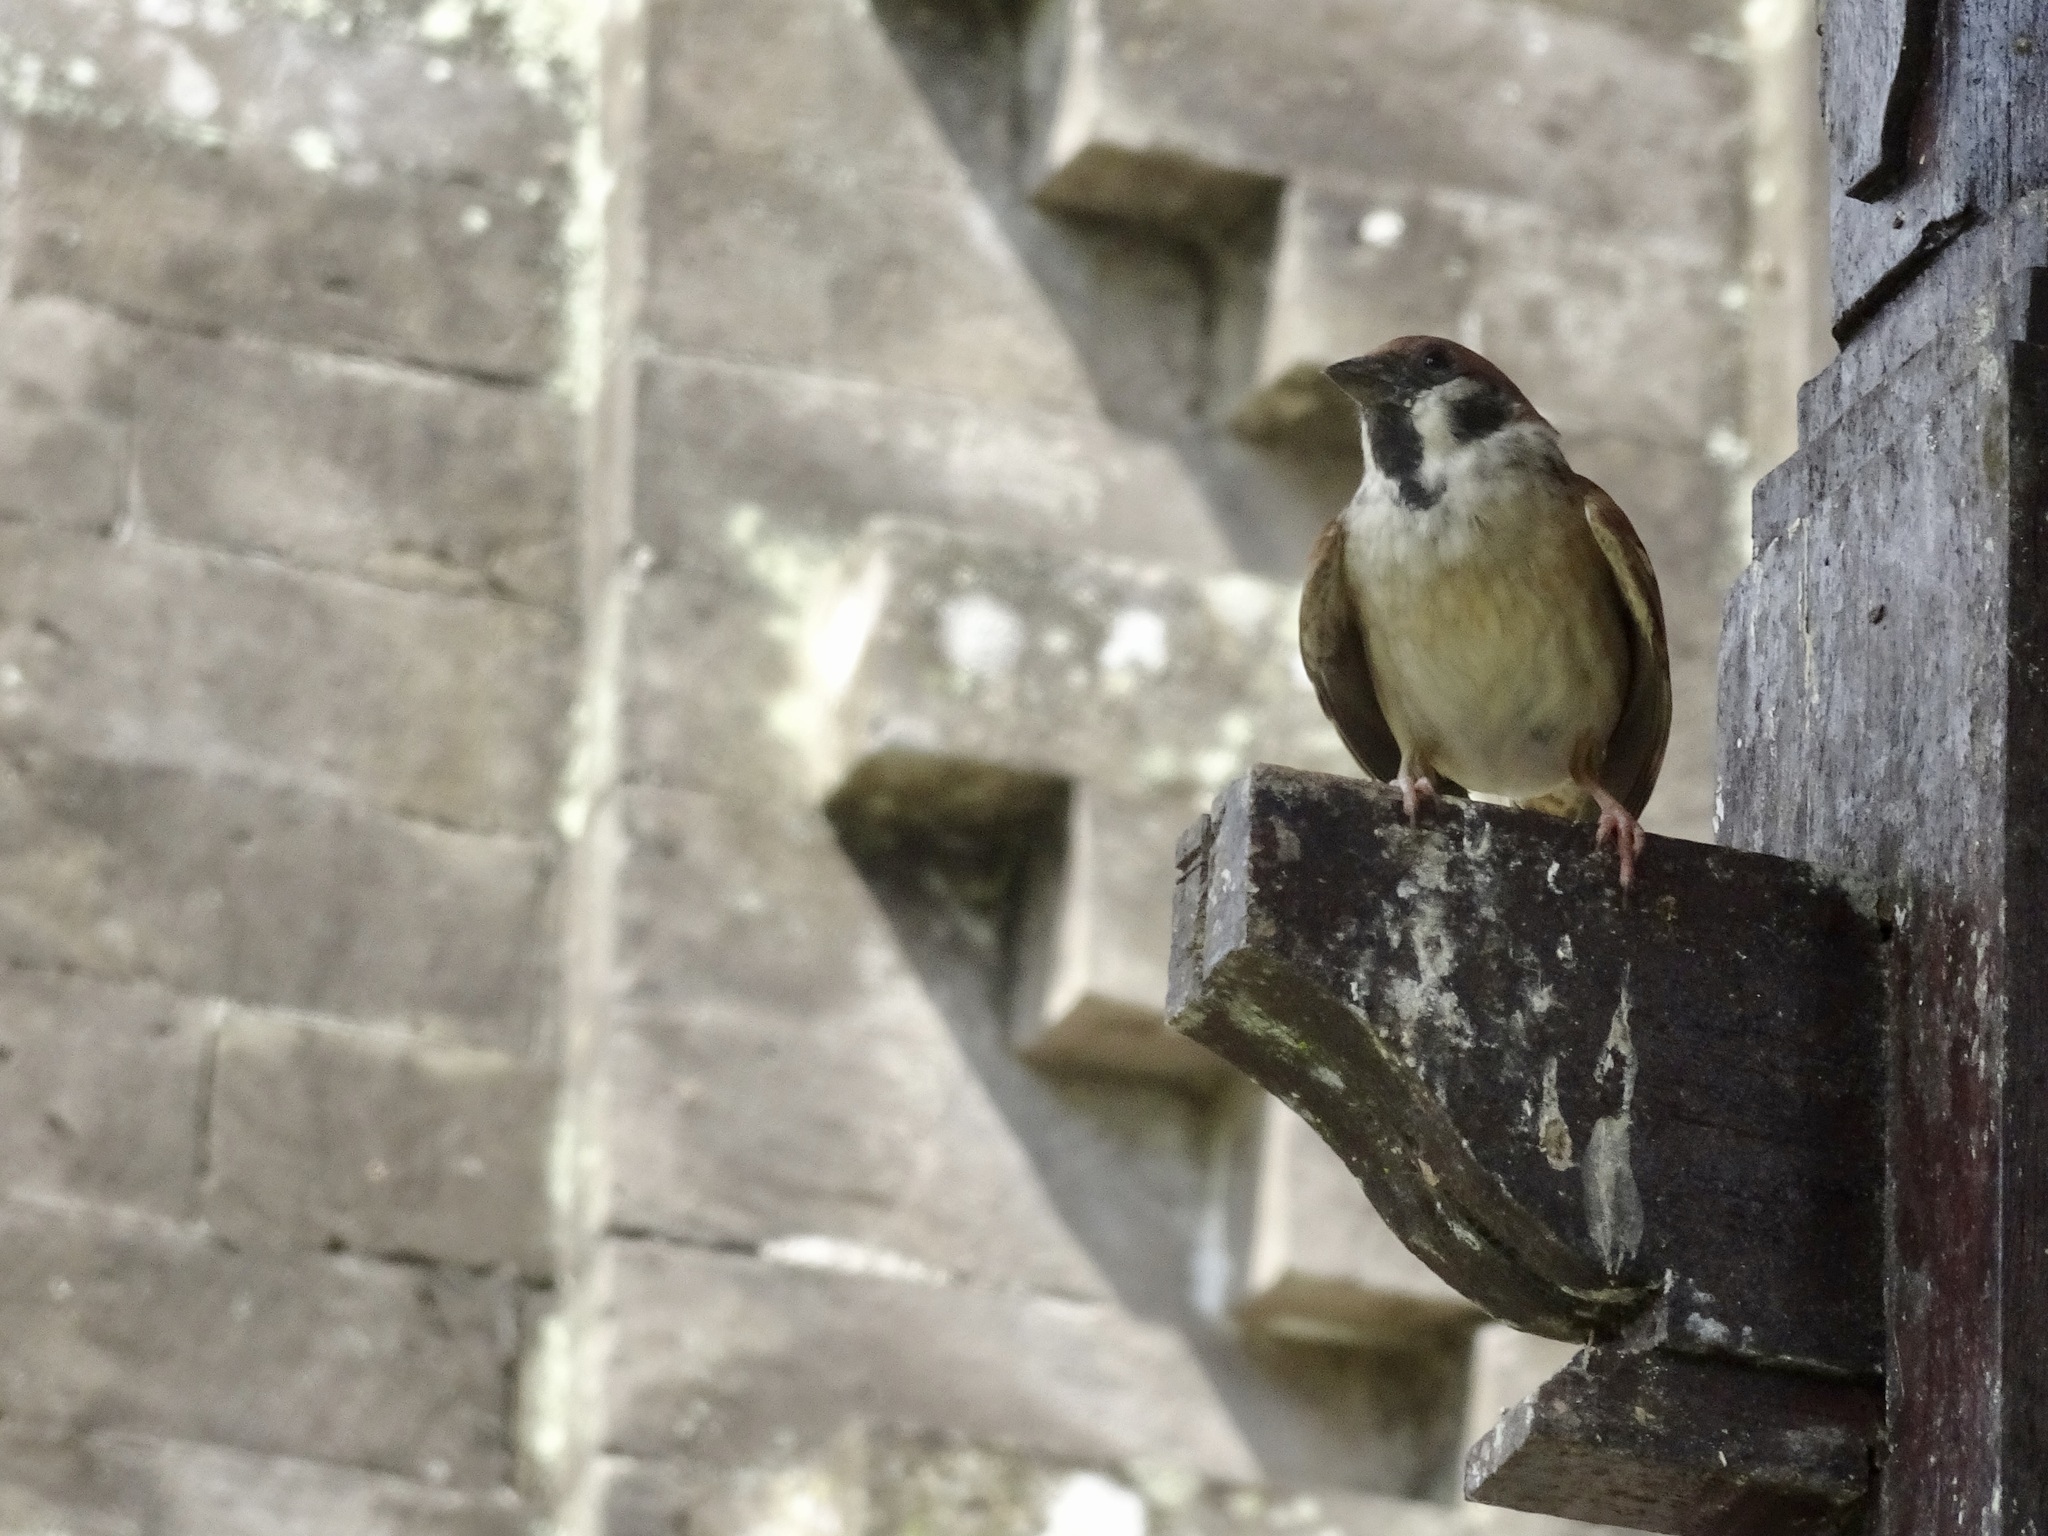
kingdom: Animalia
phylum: Chordata
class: Aves
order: Passeriformes
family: Passeridae
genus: Passer
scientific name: Passer montanus
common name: Eurasian tree sparrow
